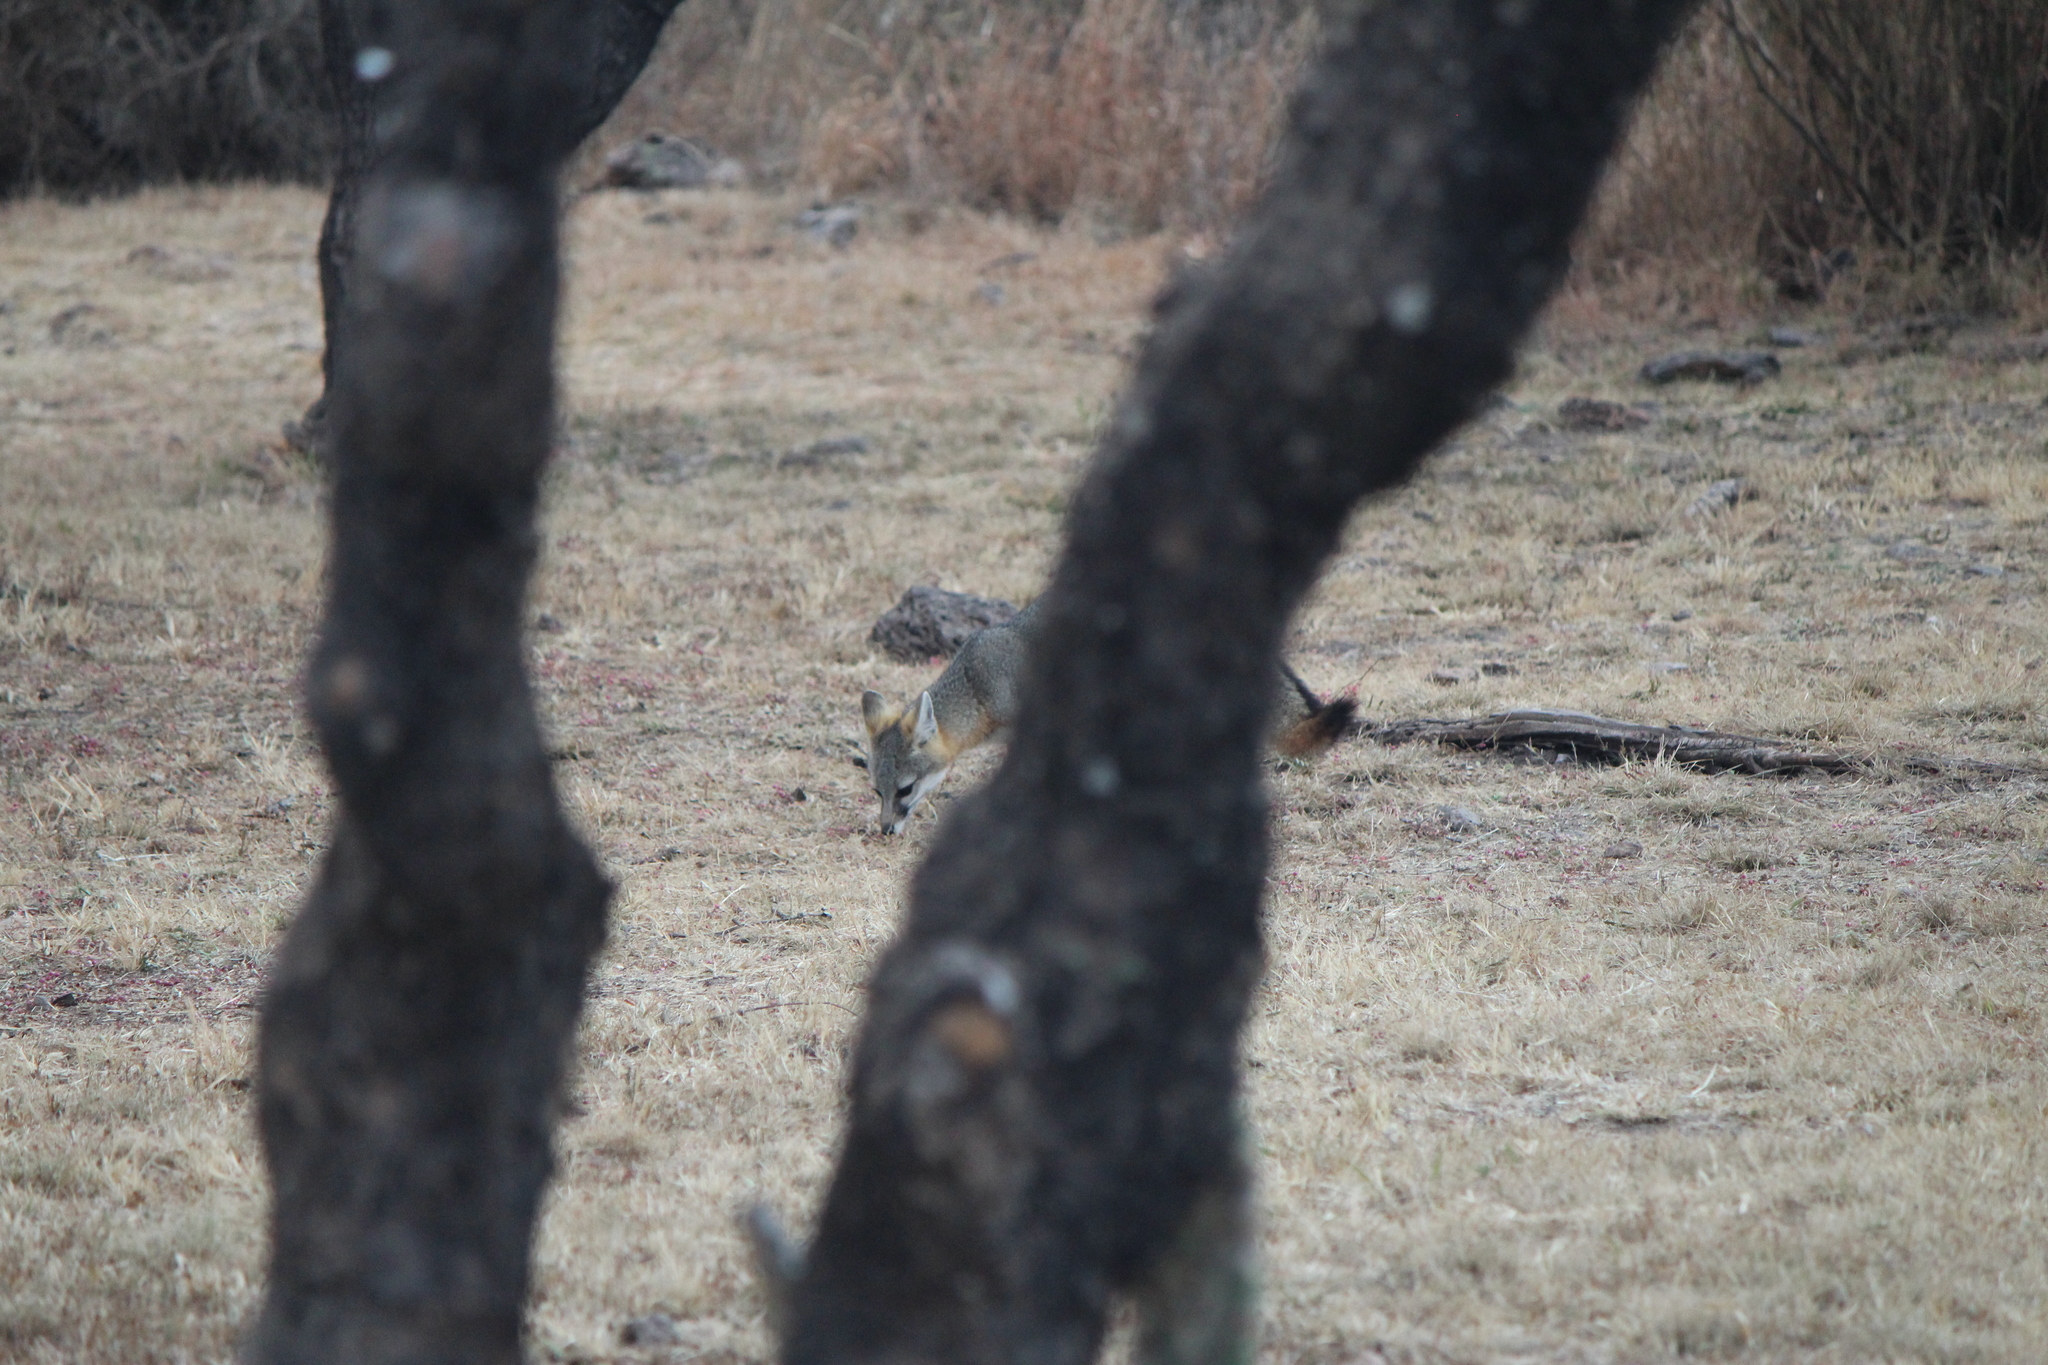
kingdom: Animalia
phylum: Chordata
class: Mammalia
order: Carnivora
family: Canidae
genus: Urocyon
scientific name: Urocyon cinereoargenteus
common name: Gray fox
